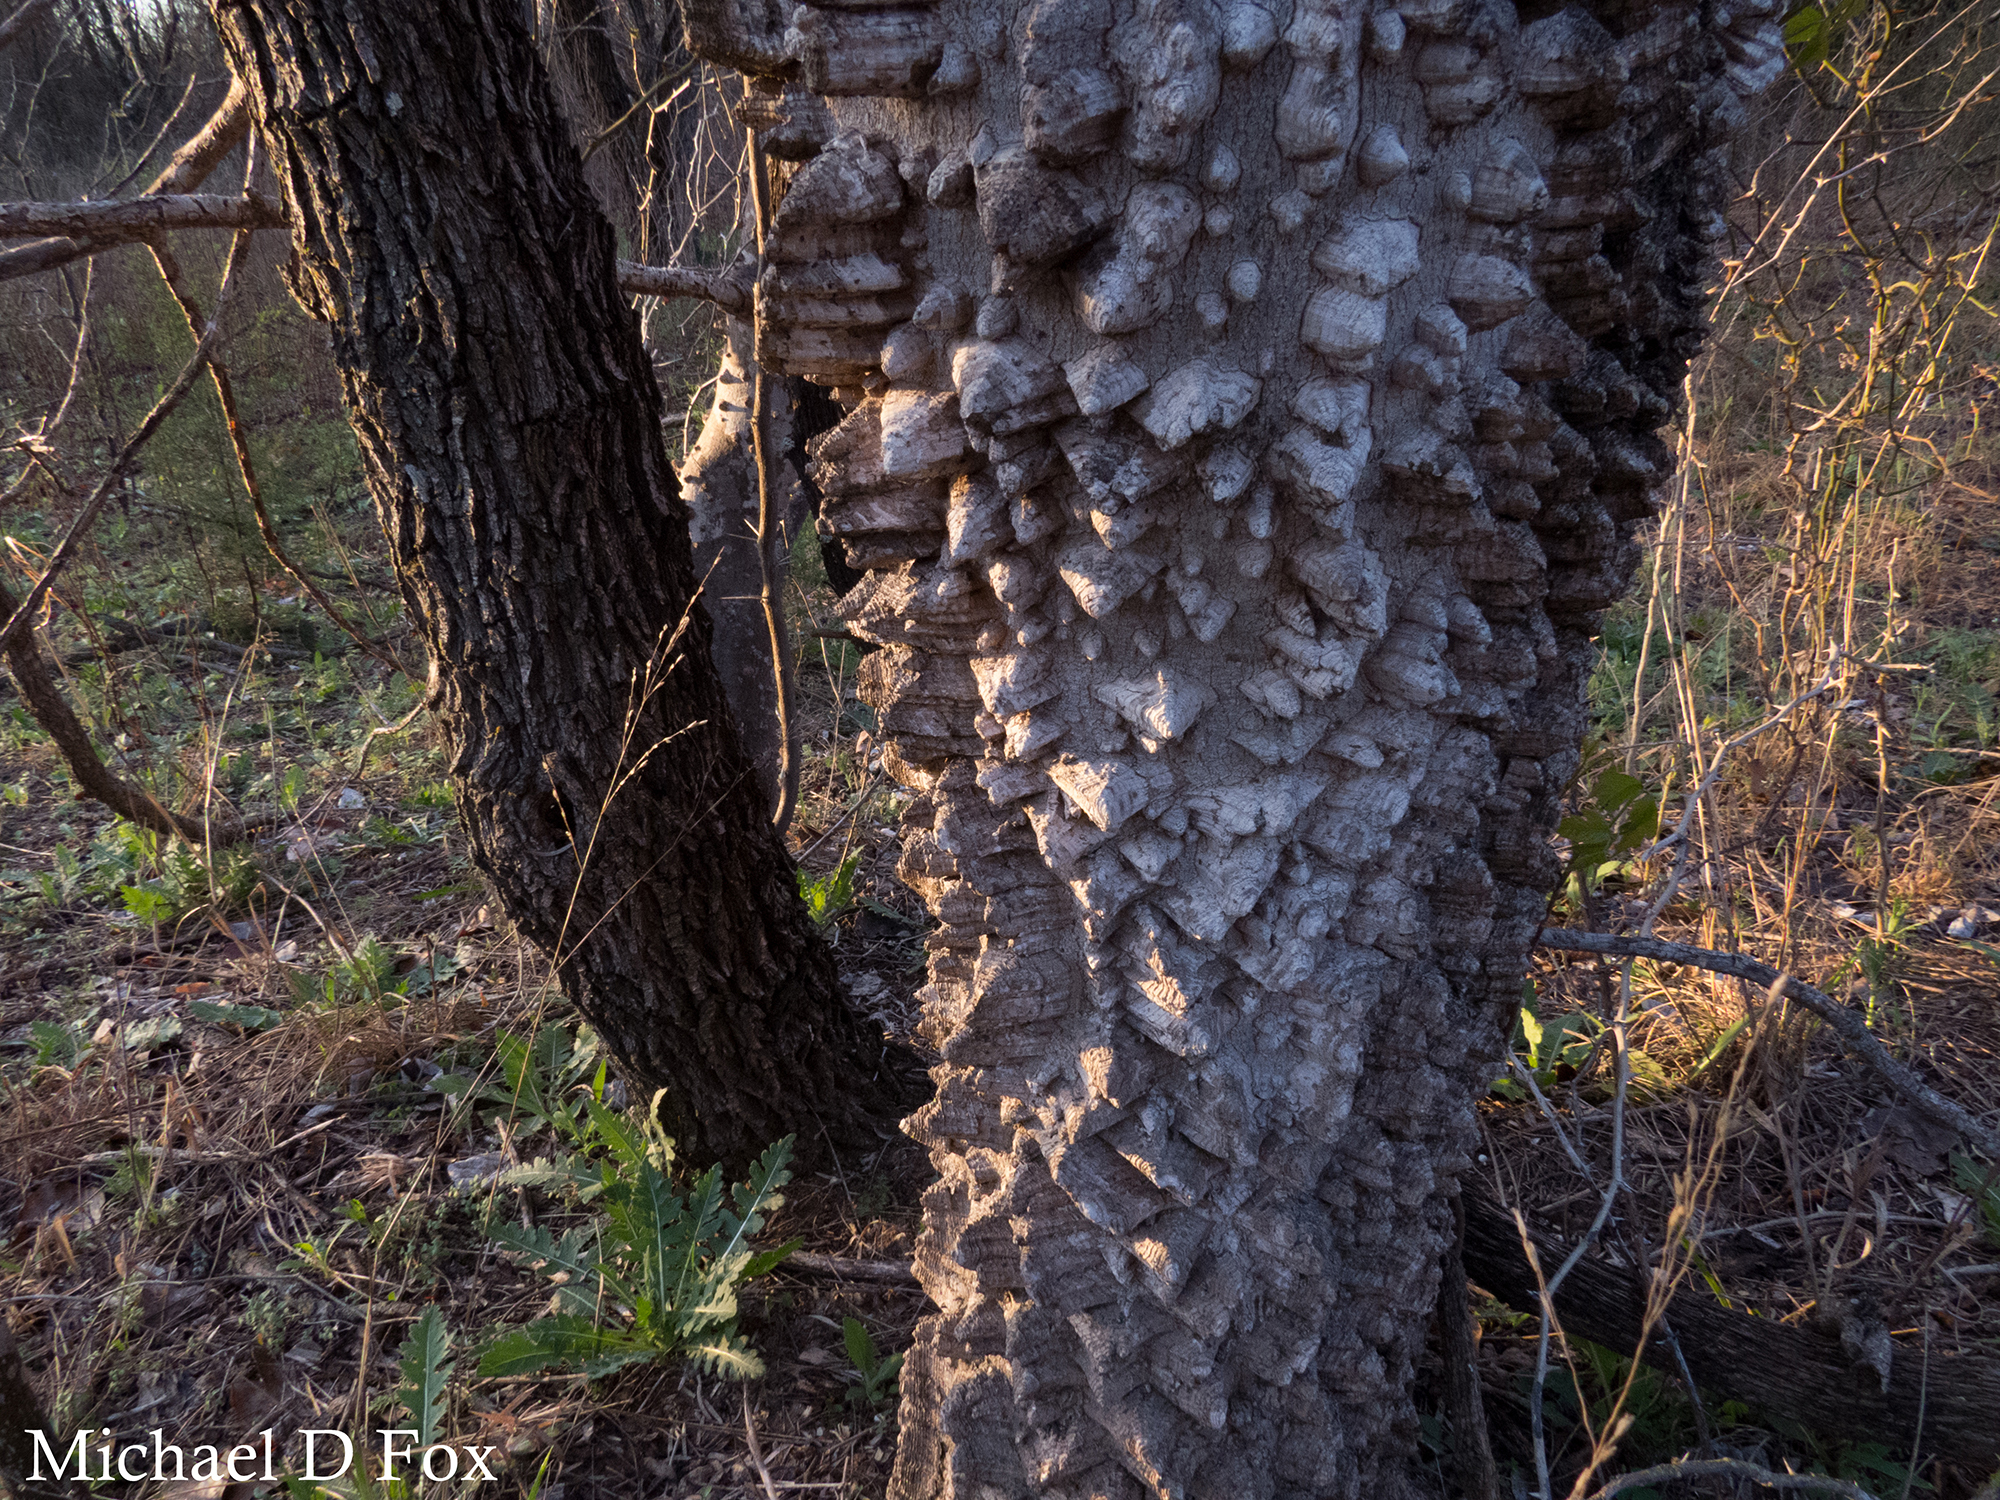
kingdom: Plantae
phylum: Tracheophyta
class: Magnoliopsida
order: Sapindales
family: Rutaceae
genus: Zanthoxylum
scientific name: Zanthoxylum clava-herculis
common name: Hercules'-club
